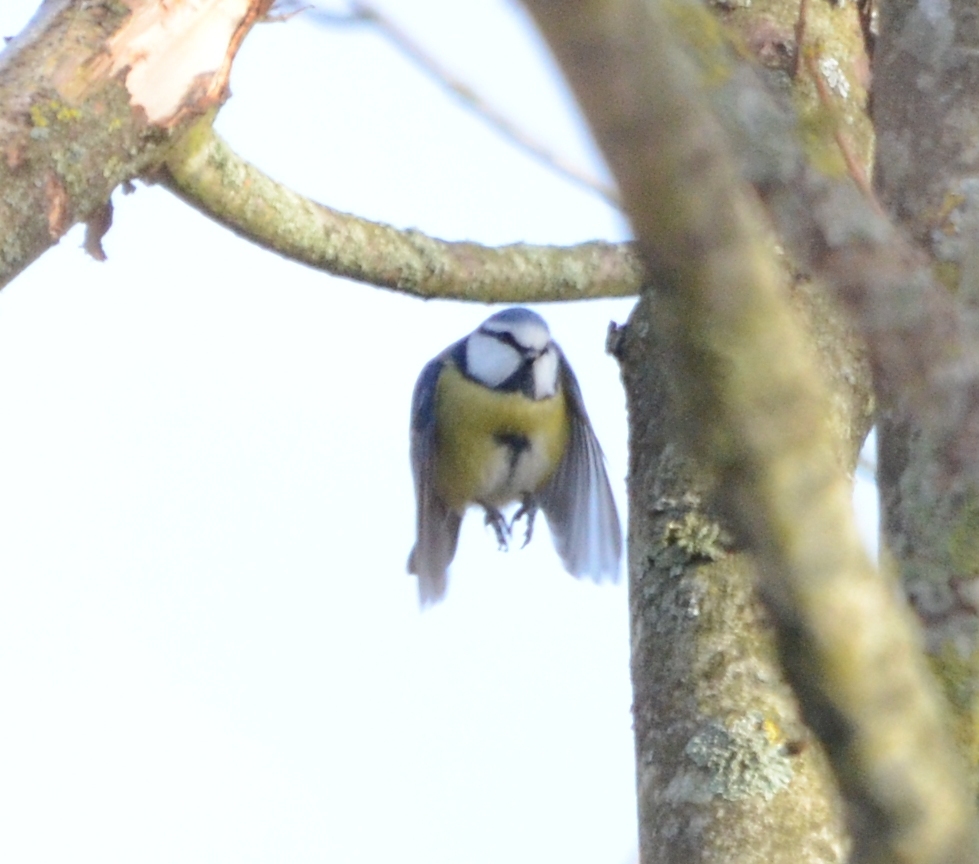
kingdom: Animalia
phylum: Chordata
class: Aves
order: Passeriformes
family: Paridae
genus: Cyanistes
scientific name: Cyanistes caeruleus
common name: Eurasian blue tit
